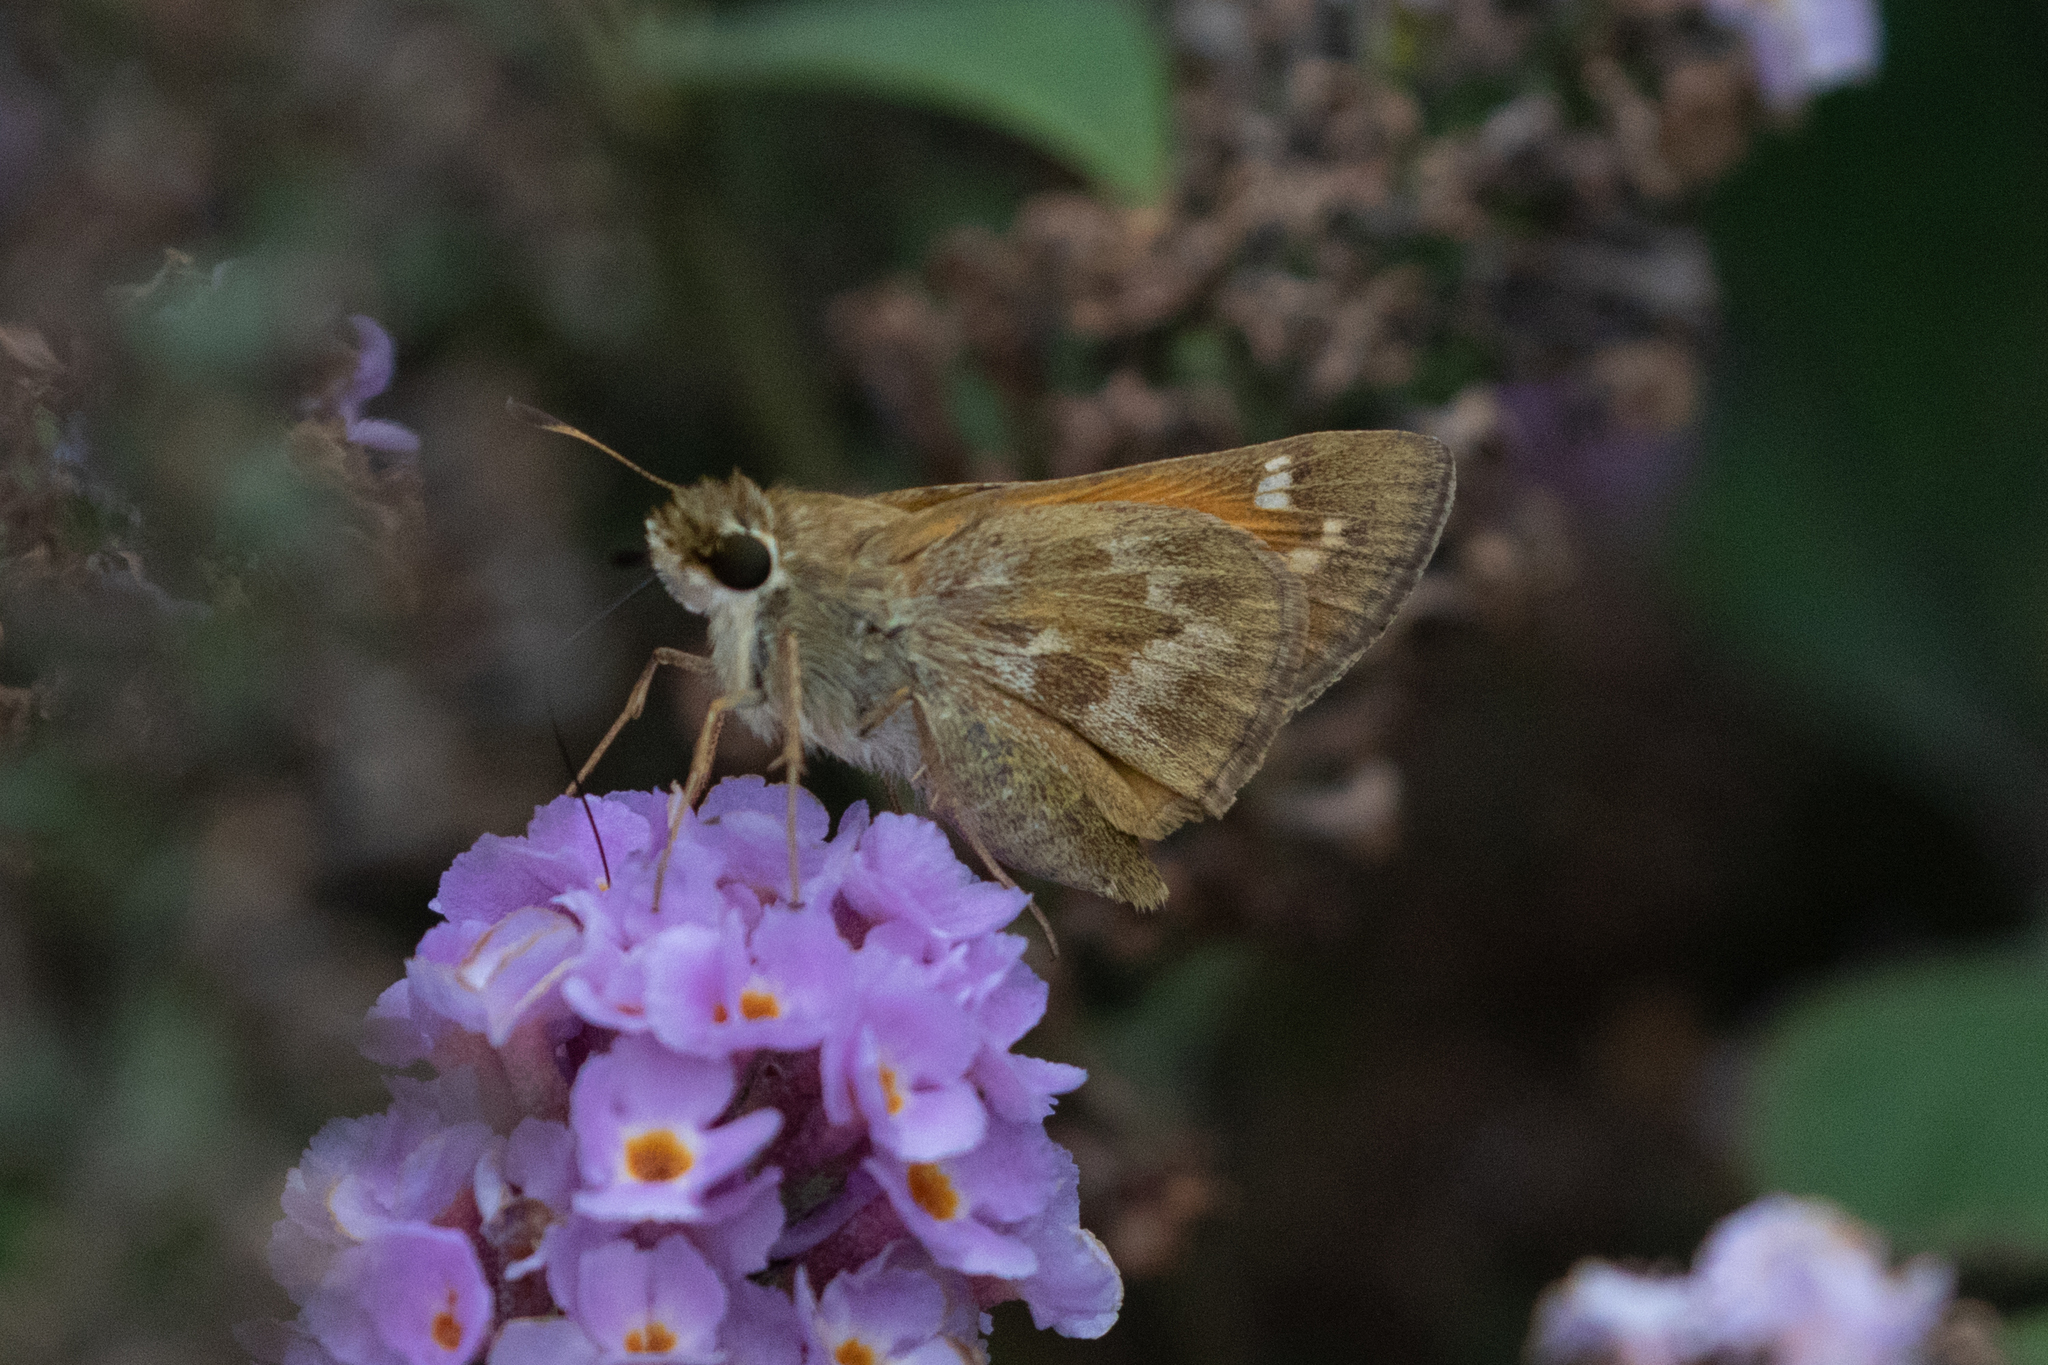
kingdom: Animalia
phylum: Arthropoda
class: Insecta
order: Lepidoptera
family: Hesperiidae
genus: Atalopedes
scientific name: Atalopedes
